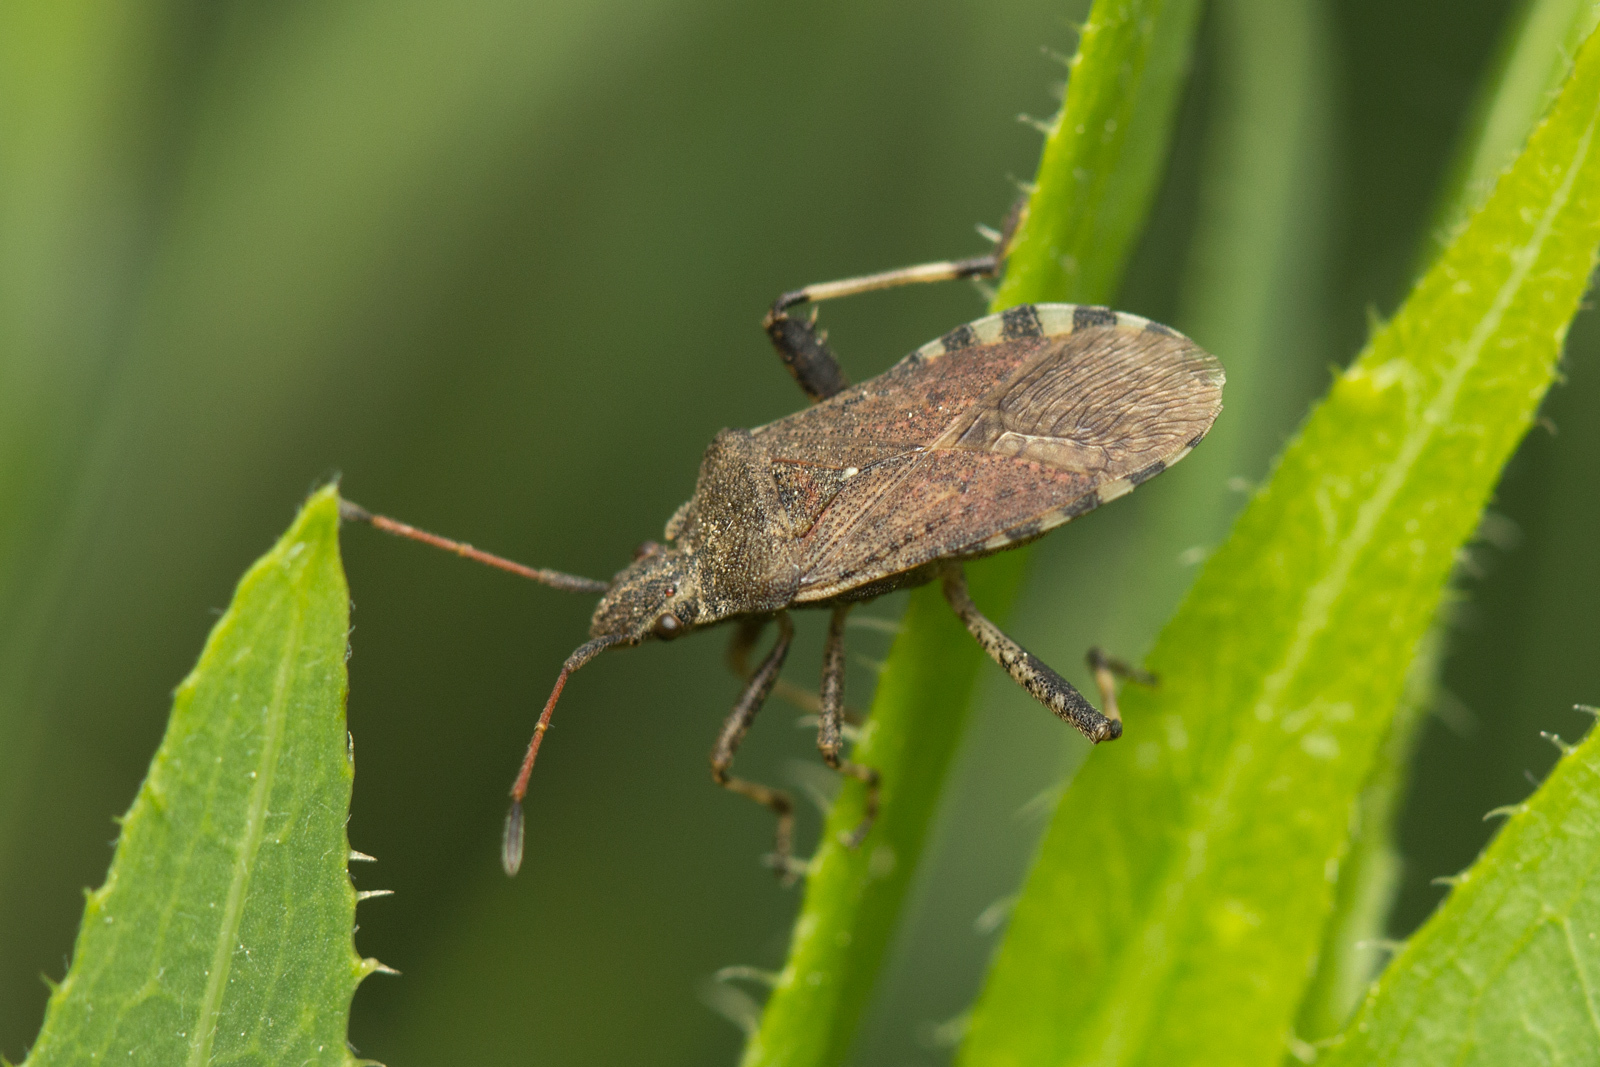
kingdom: Animalia
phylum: Arthropoda
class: Insecta
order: Hemiptera
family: Coreidae
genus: Ceraleptus
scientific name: Ceraleptus gracilicornis
